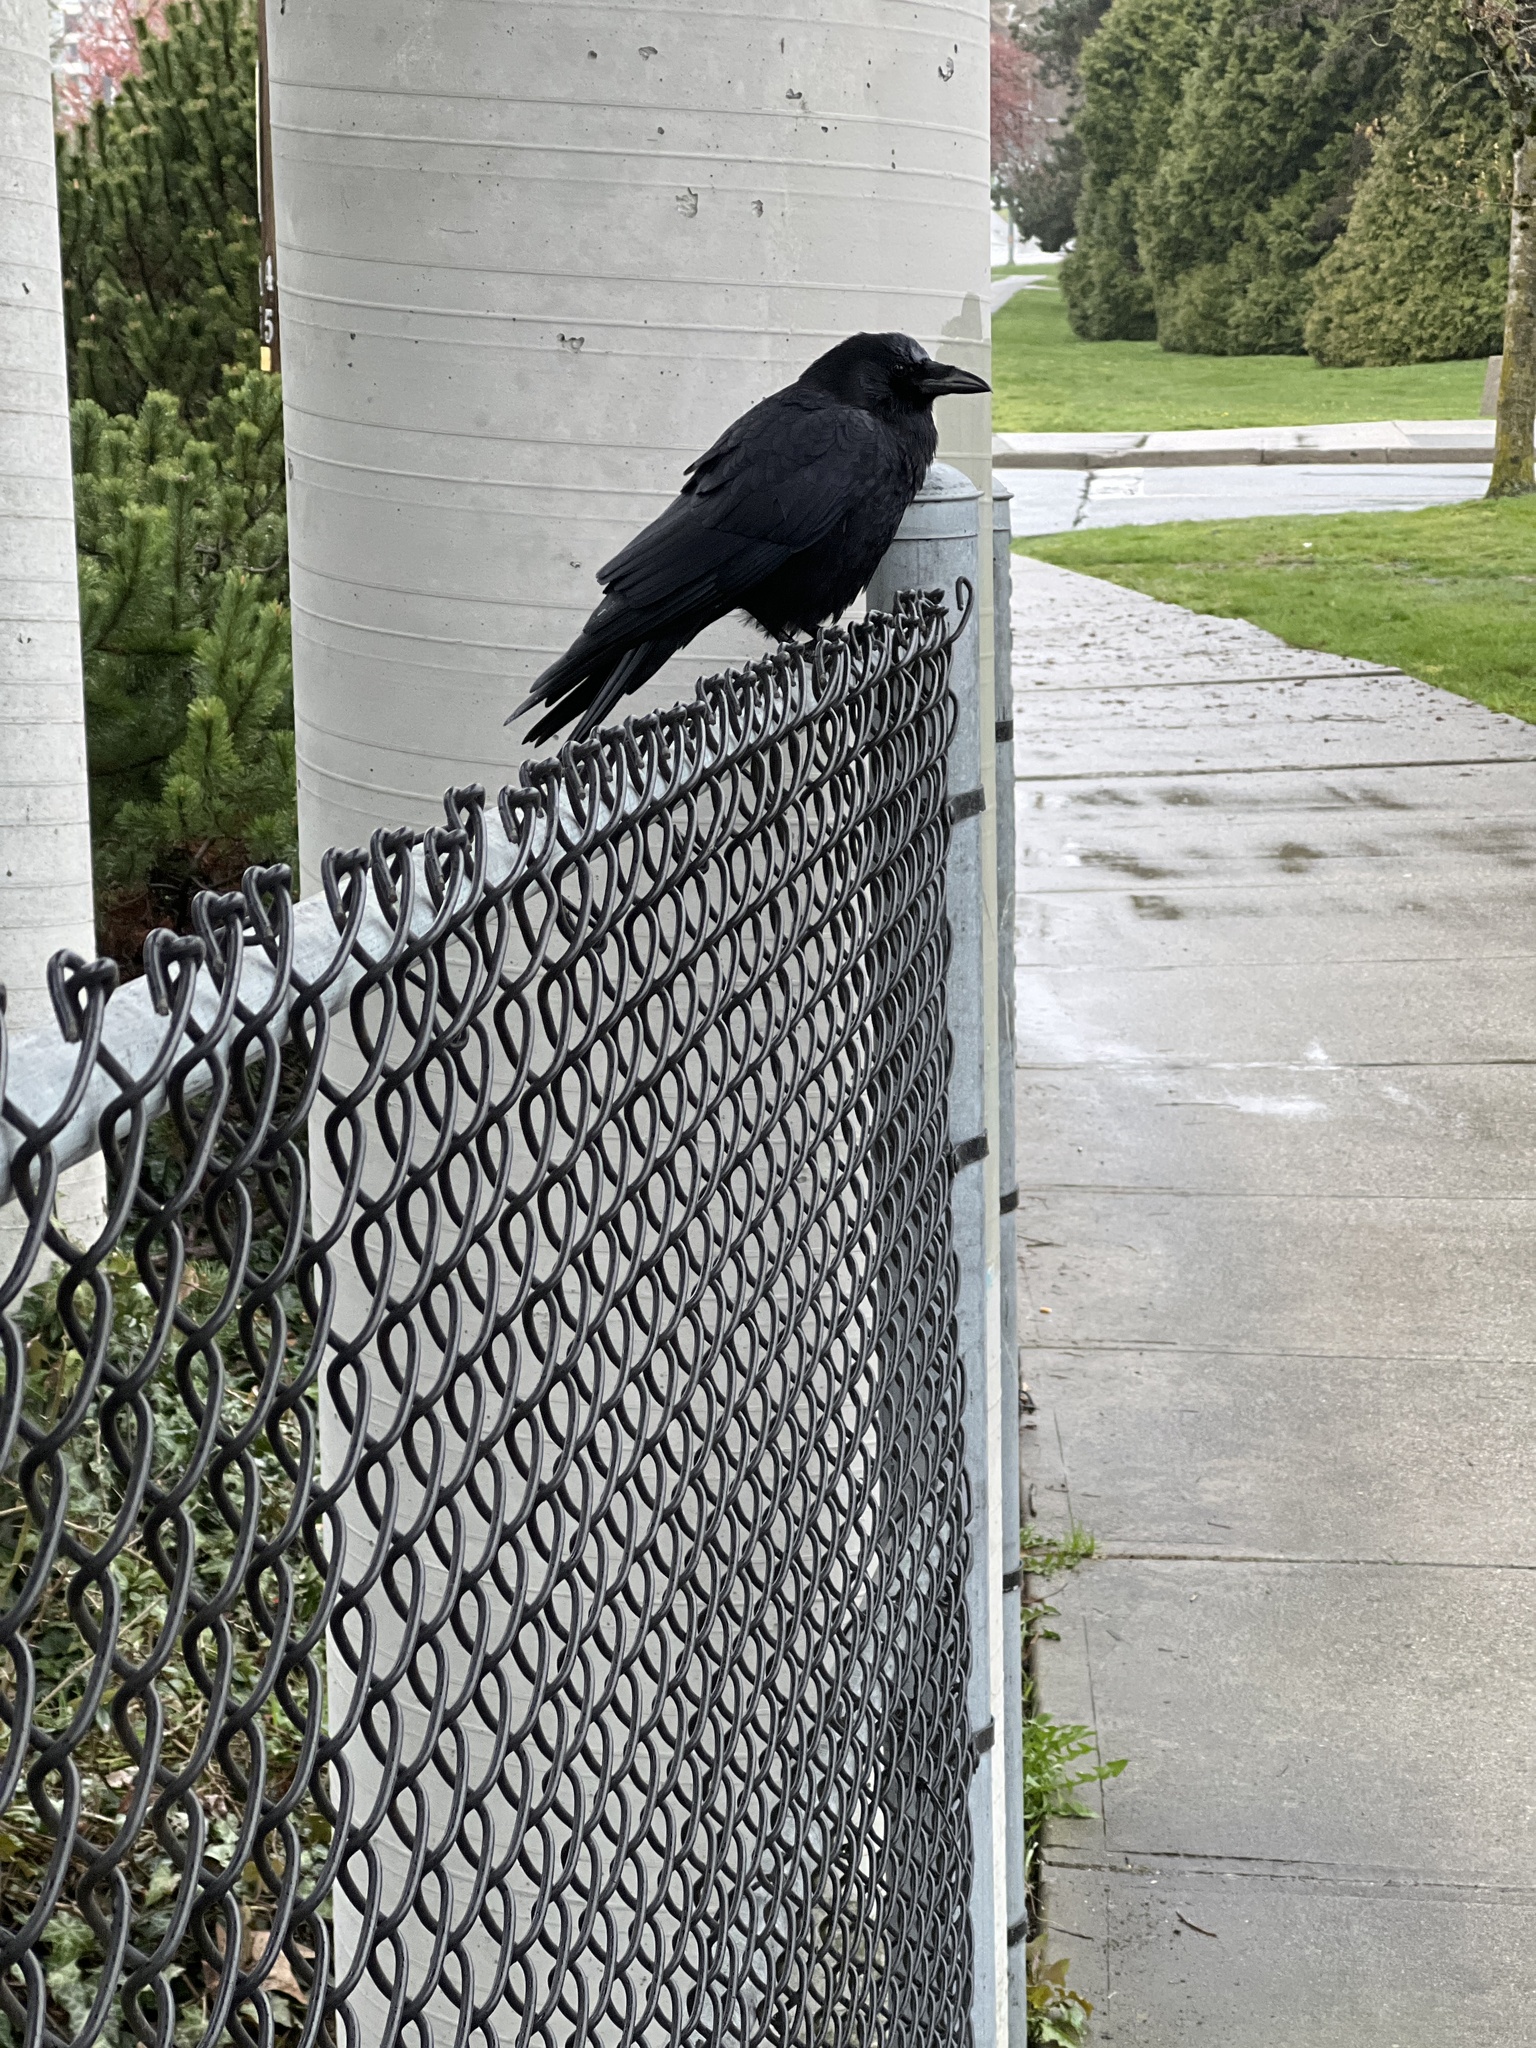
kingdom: Animalia
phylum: Chordata
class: Aves
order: Passeriformes
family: Corvidae
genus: Corvus
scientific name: Corvus brachyrhynchos
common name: American crow
